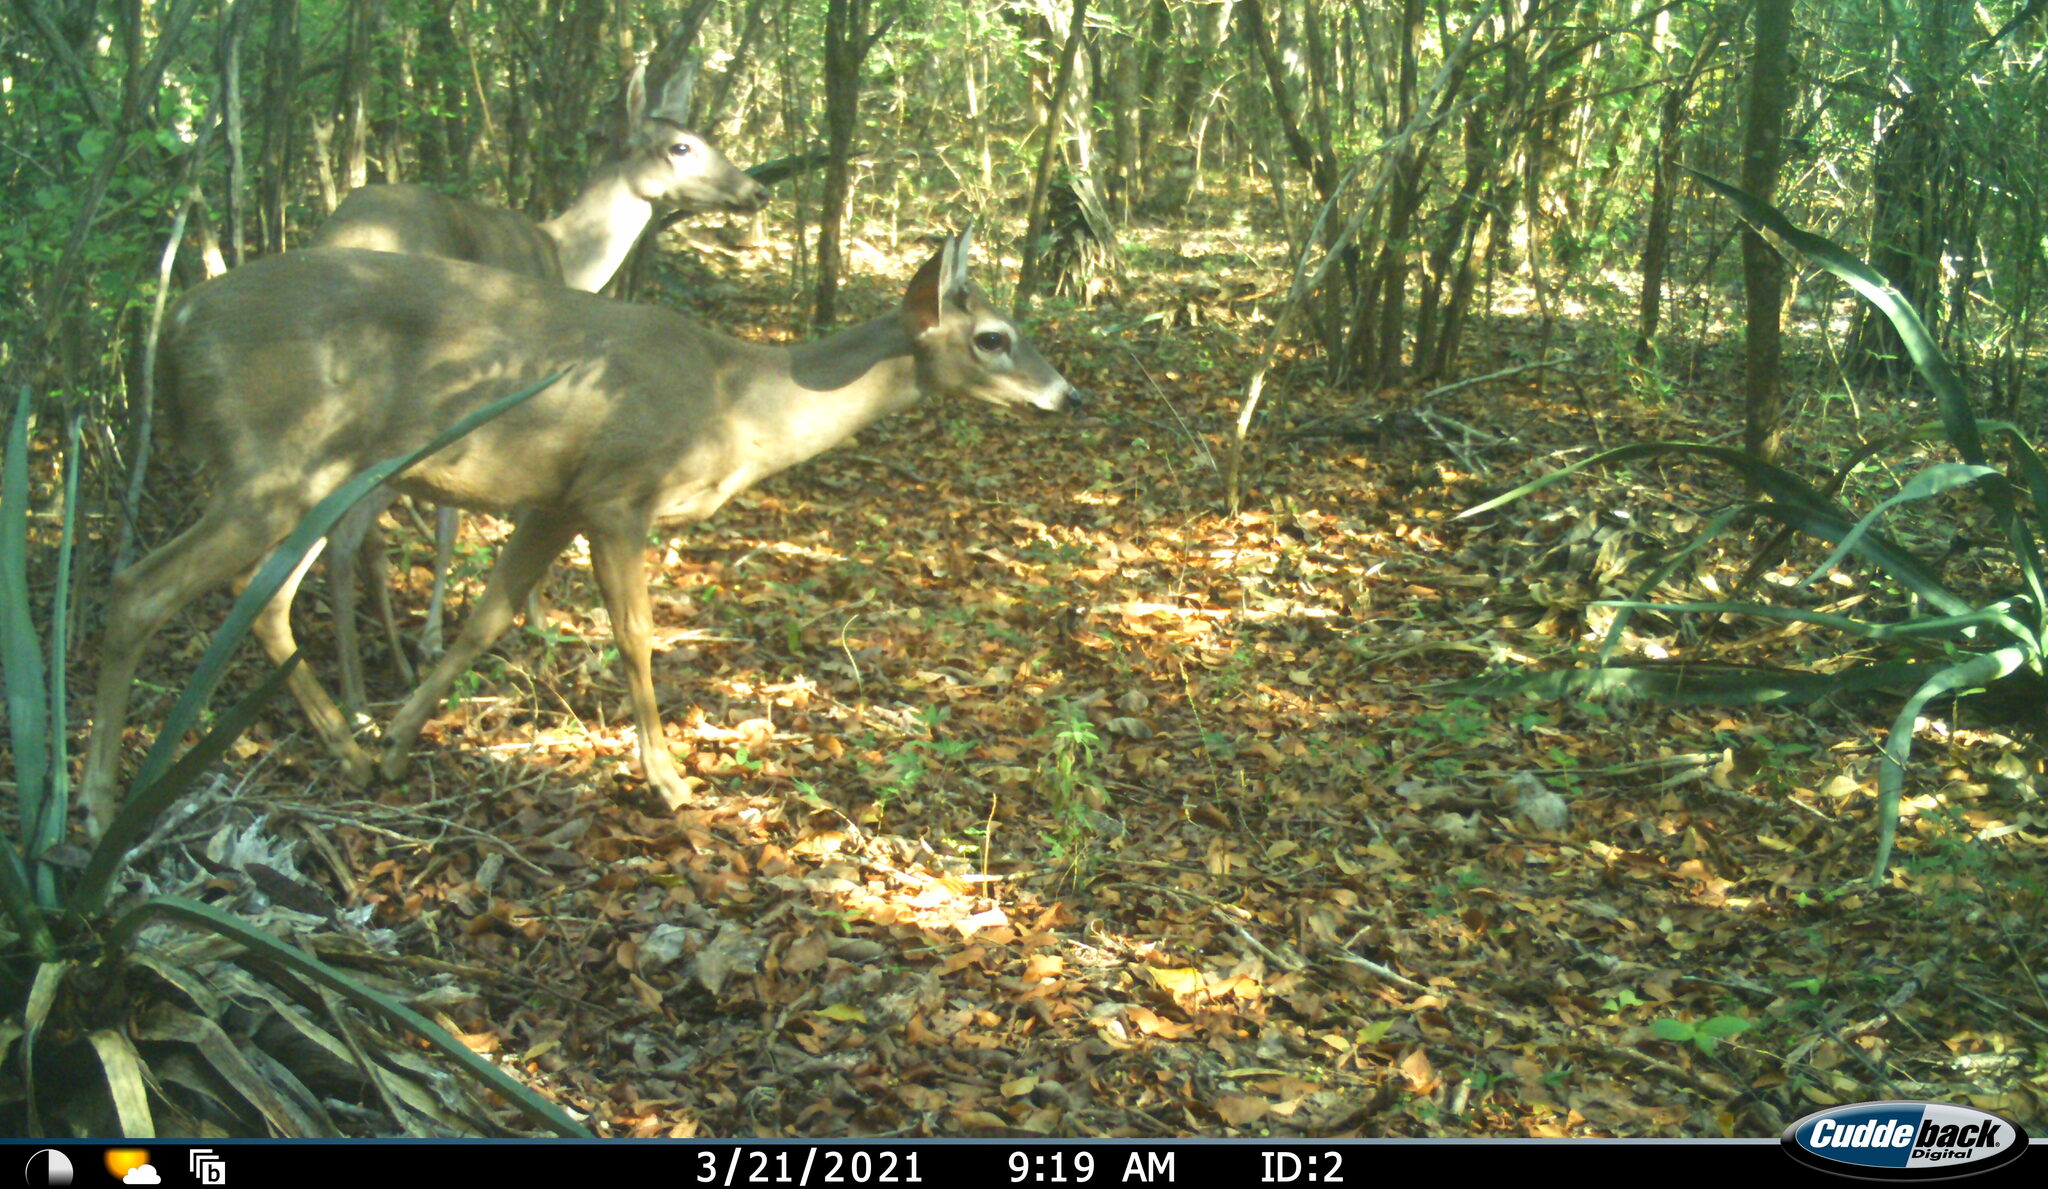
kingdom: Animalia
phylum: Chordata
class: Mammalia
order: Artiodactyla
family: Cervidae
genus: Odocoileus
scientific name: Odocoileus virginianus
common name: White-tailed deer
